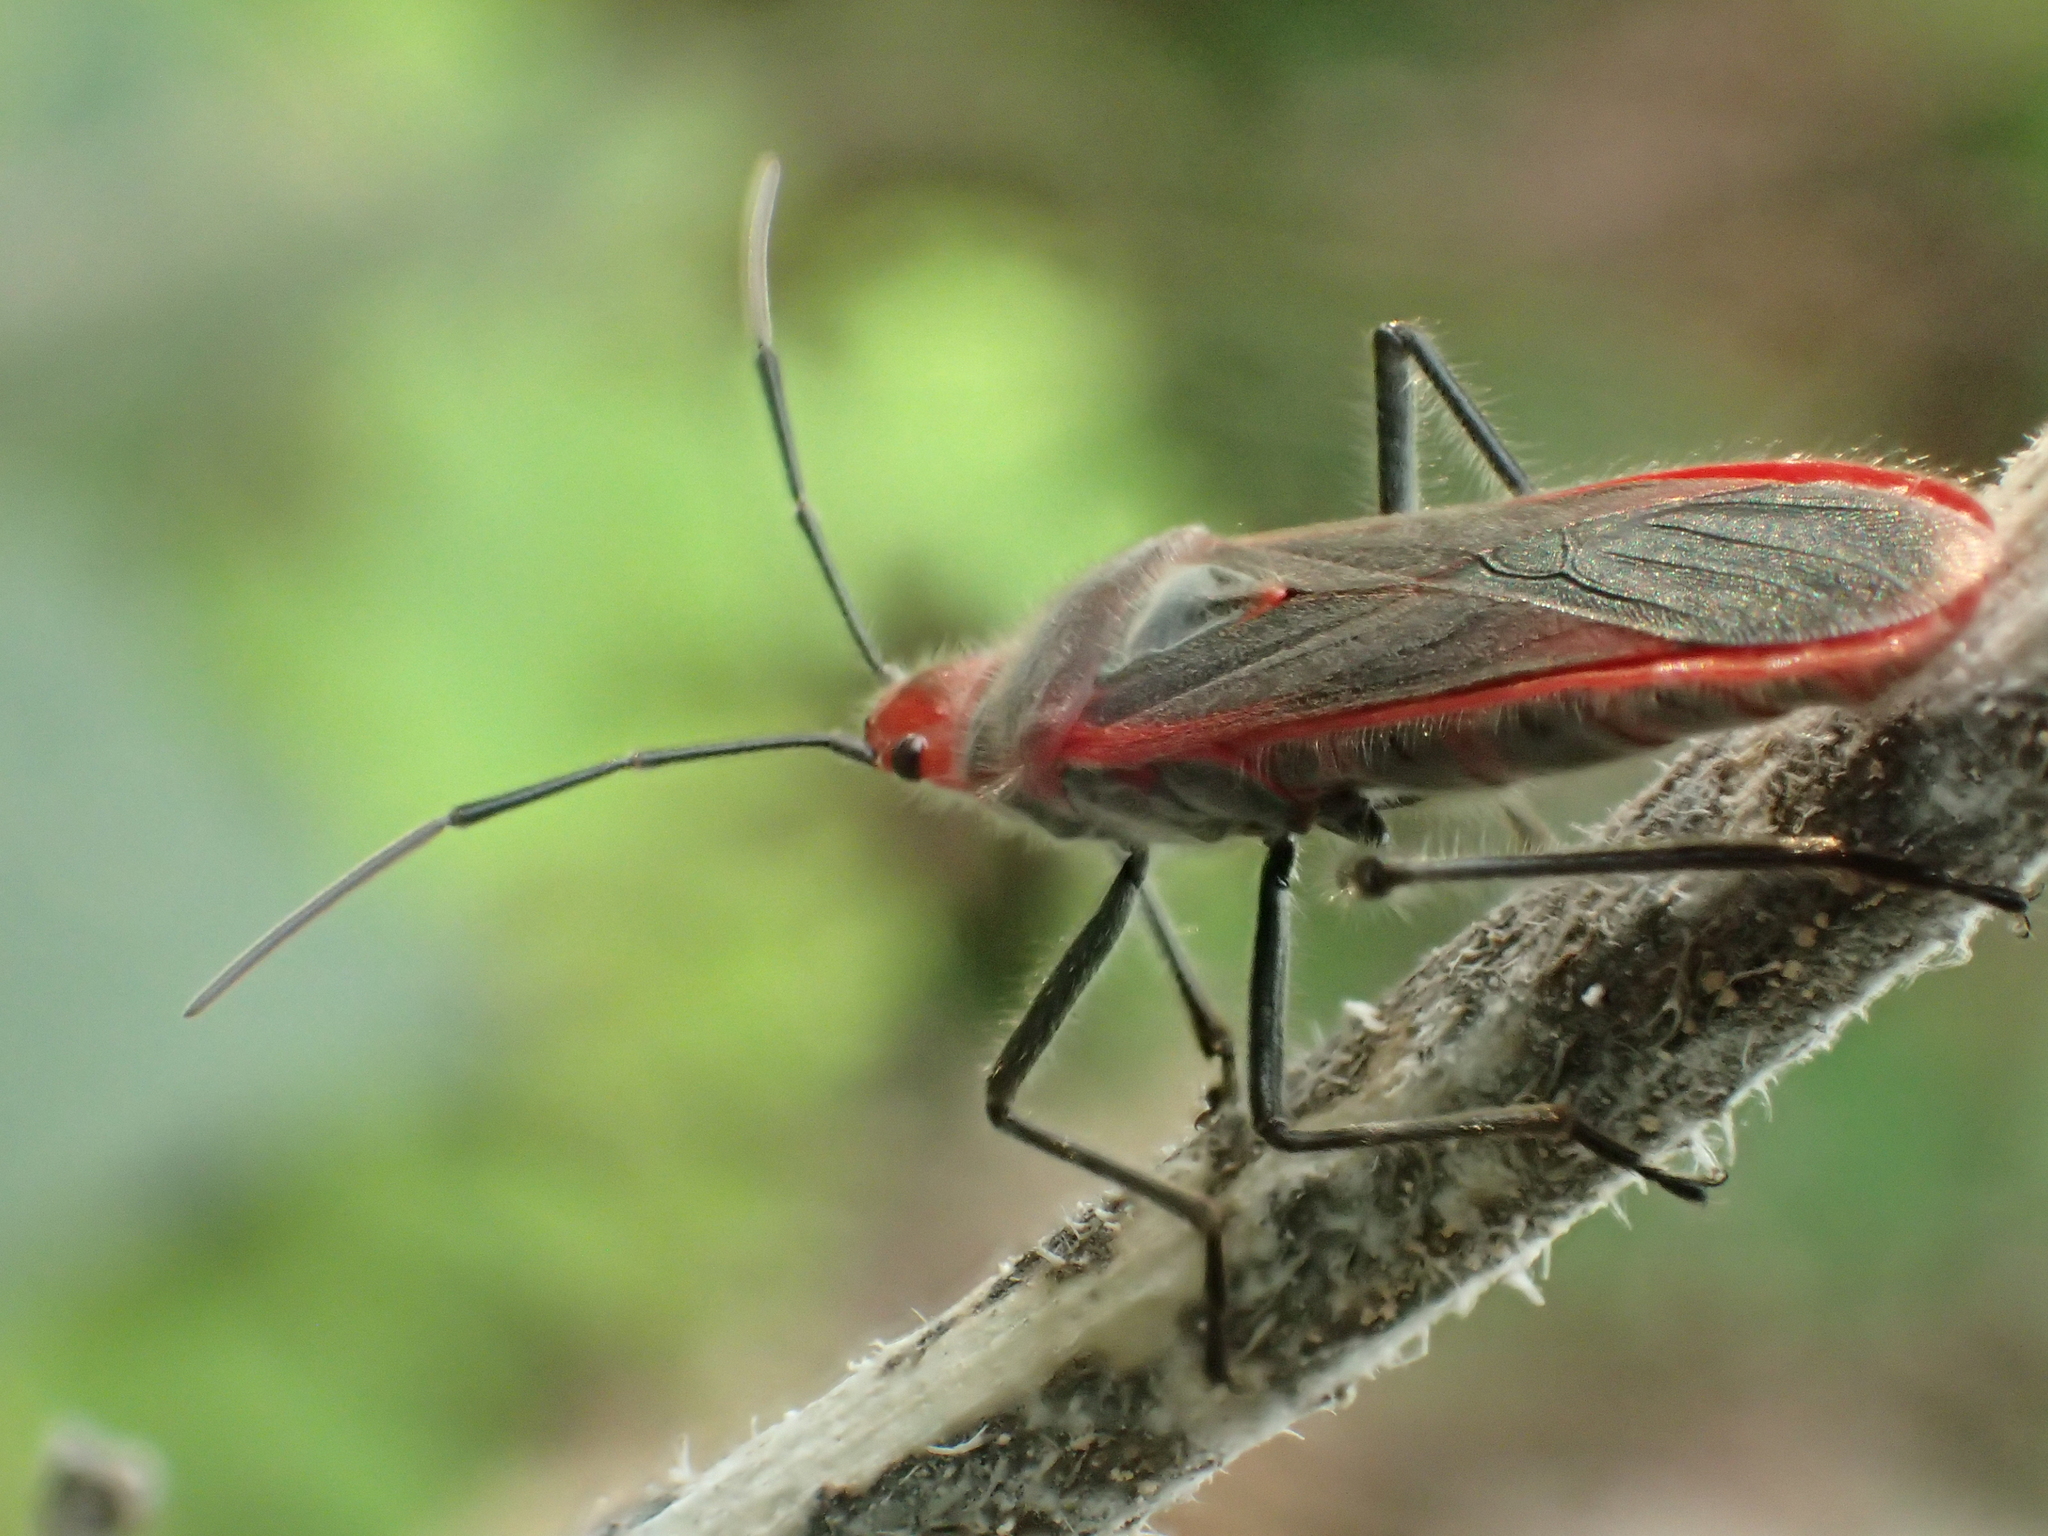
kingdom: Animalia
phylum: Arthropoda
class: Insecta
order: Hemiptera
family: Lygaeidae
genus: Thunbergia
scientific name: Thunbergia marginatus
